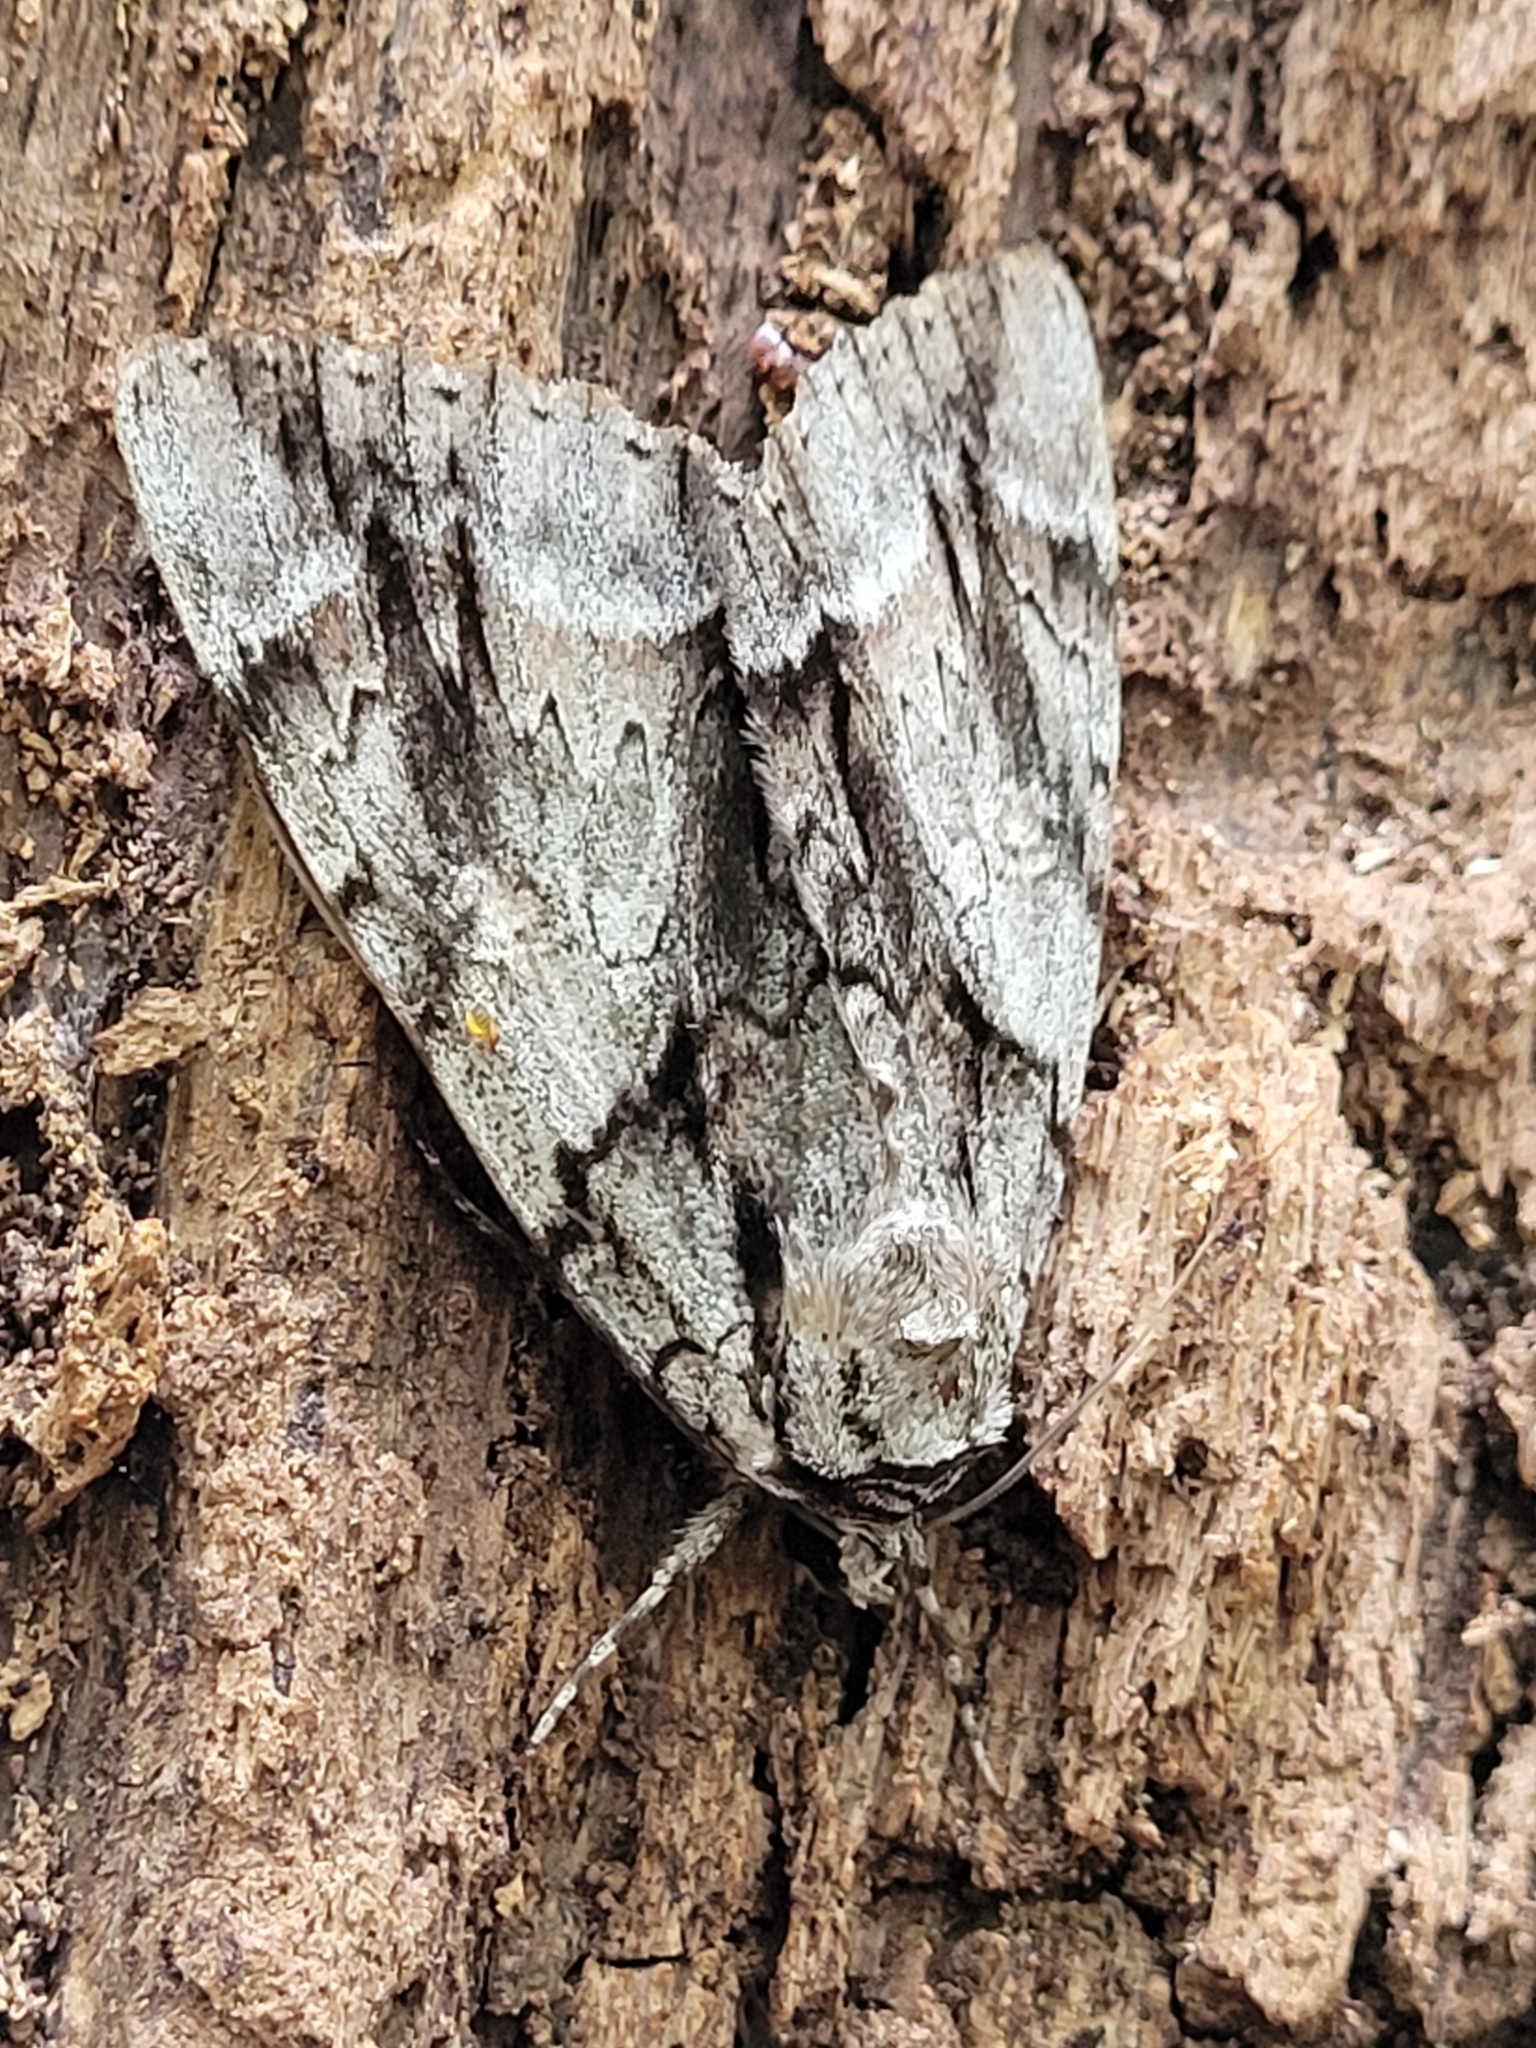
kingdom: Animalia
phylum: Arthropoda
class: Insecta
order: Lepidoptera
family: Erebidae
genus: Catocala
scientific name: Catocala vidua
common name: The widow
